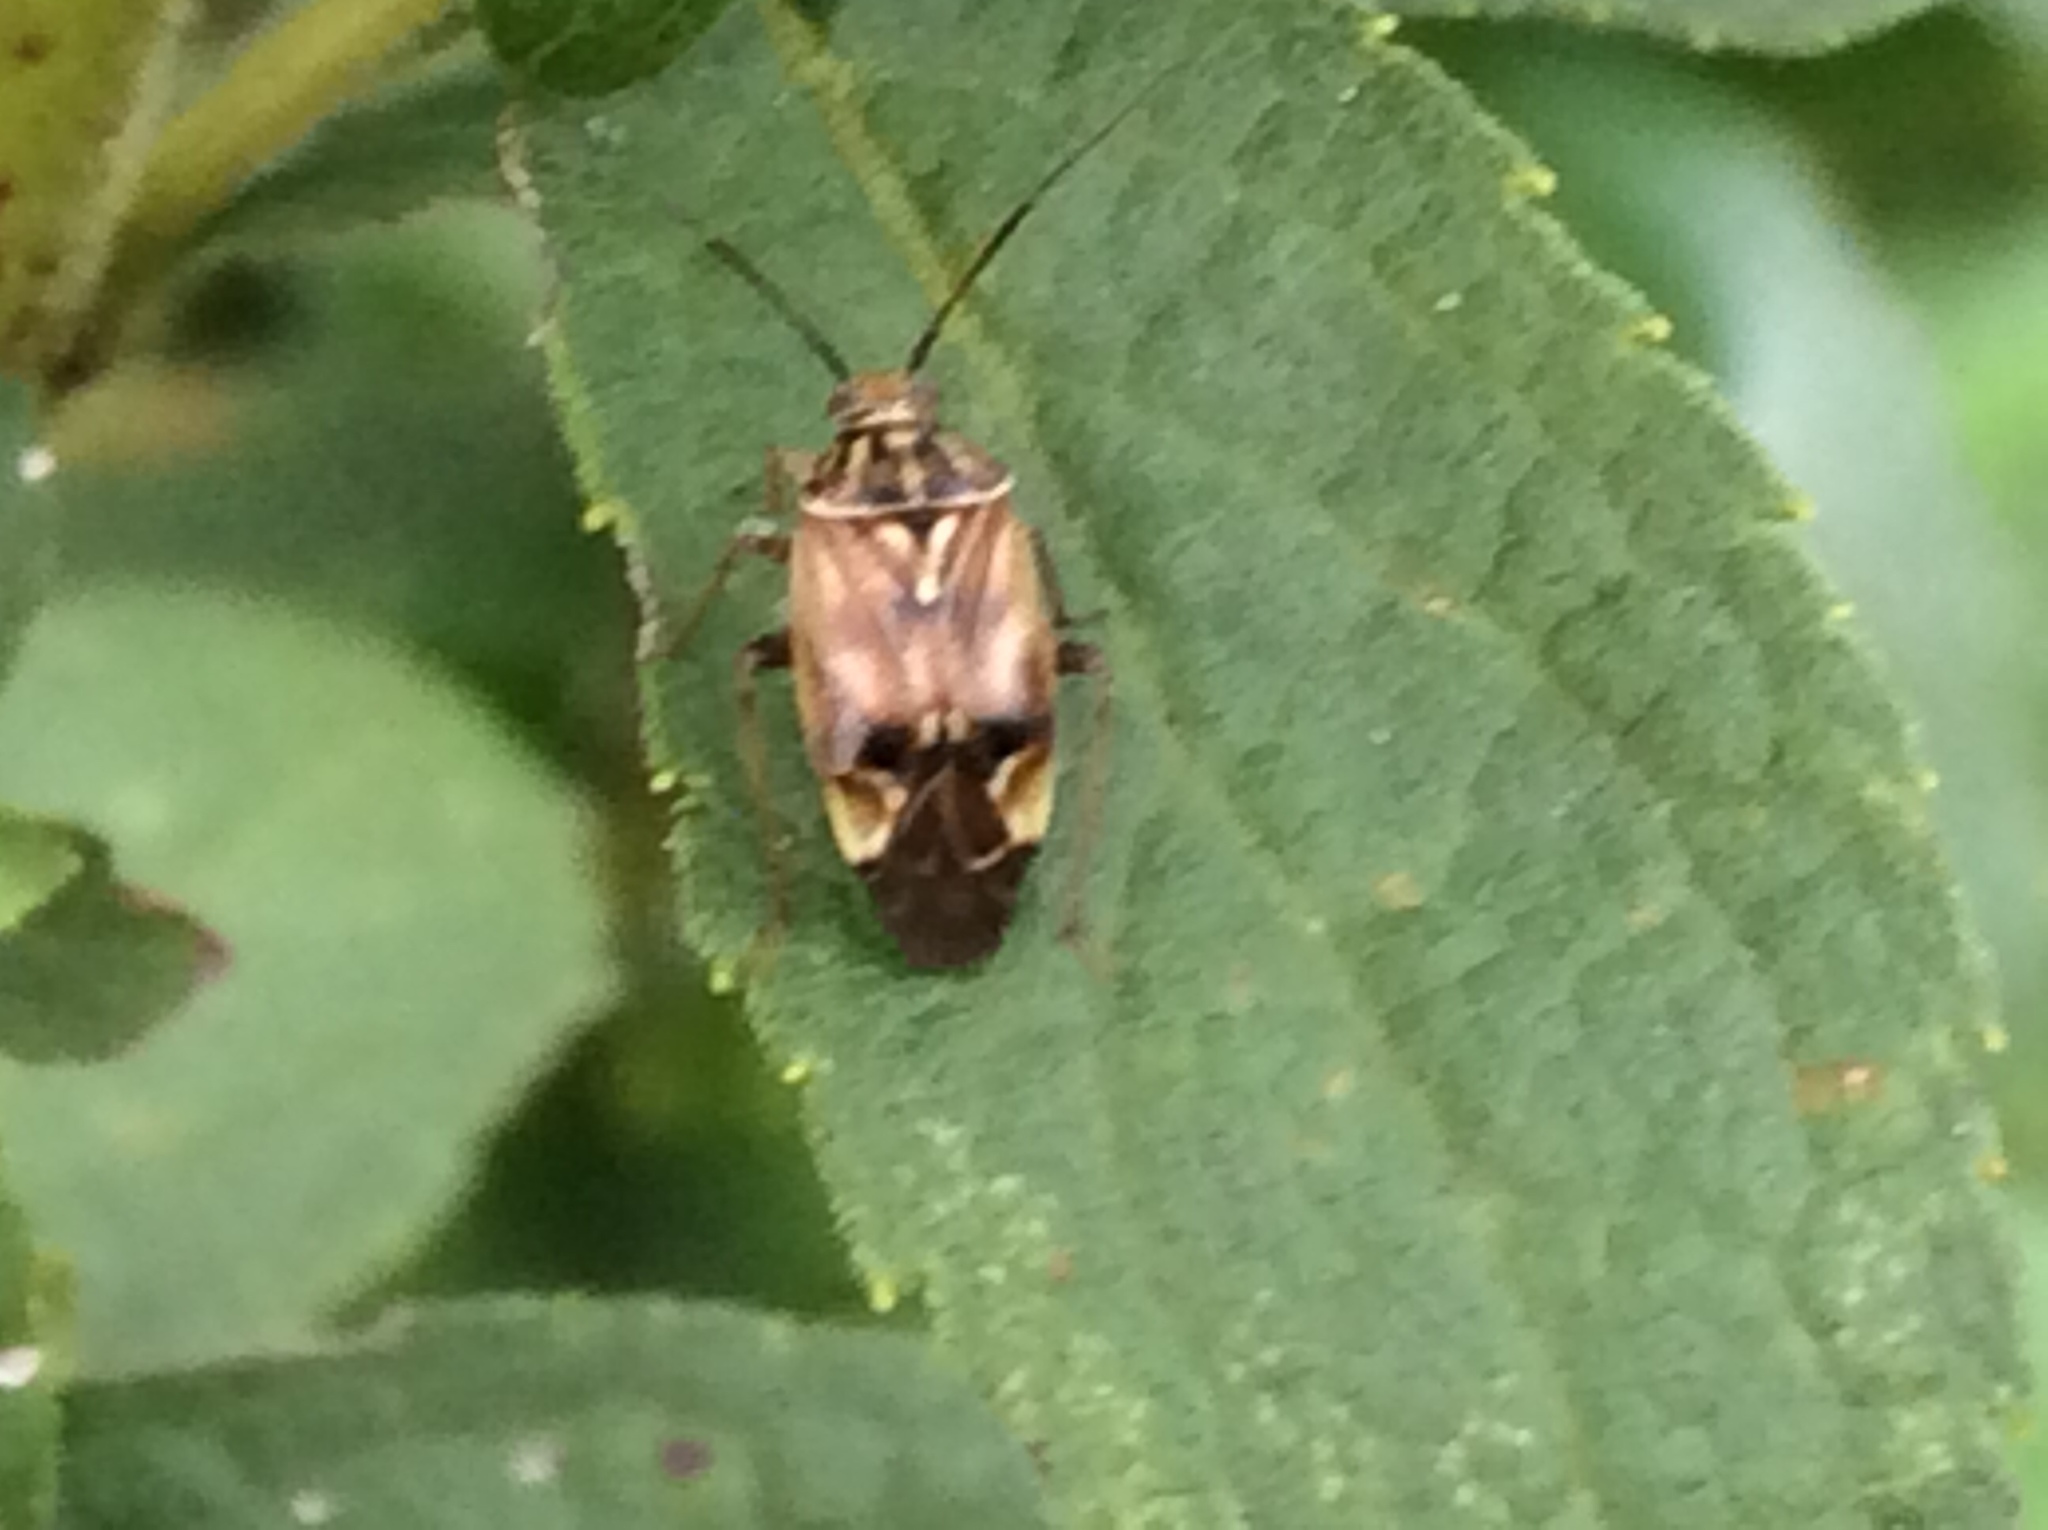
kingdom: Animalia
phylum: Arthropoda
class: Insecta
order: Hemiptera
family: Miridae
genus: Lygus
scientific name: Lygus lineolaris
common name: North american tarnished plant bug
